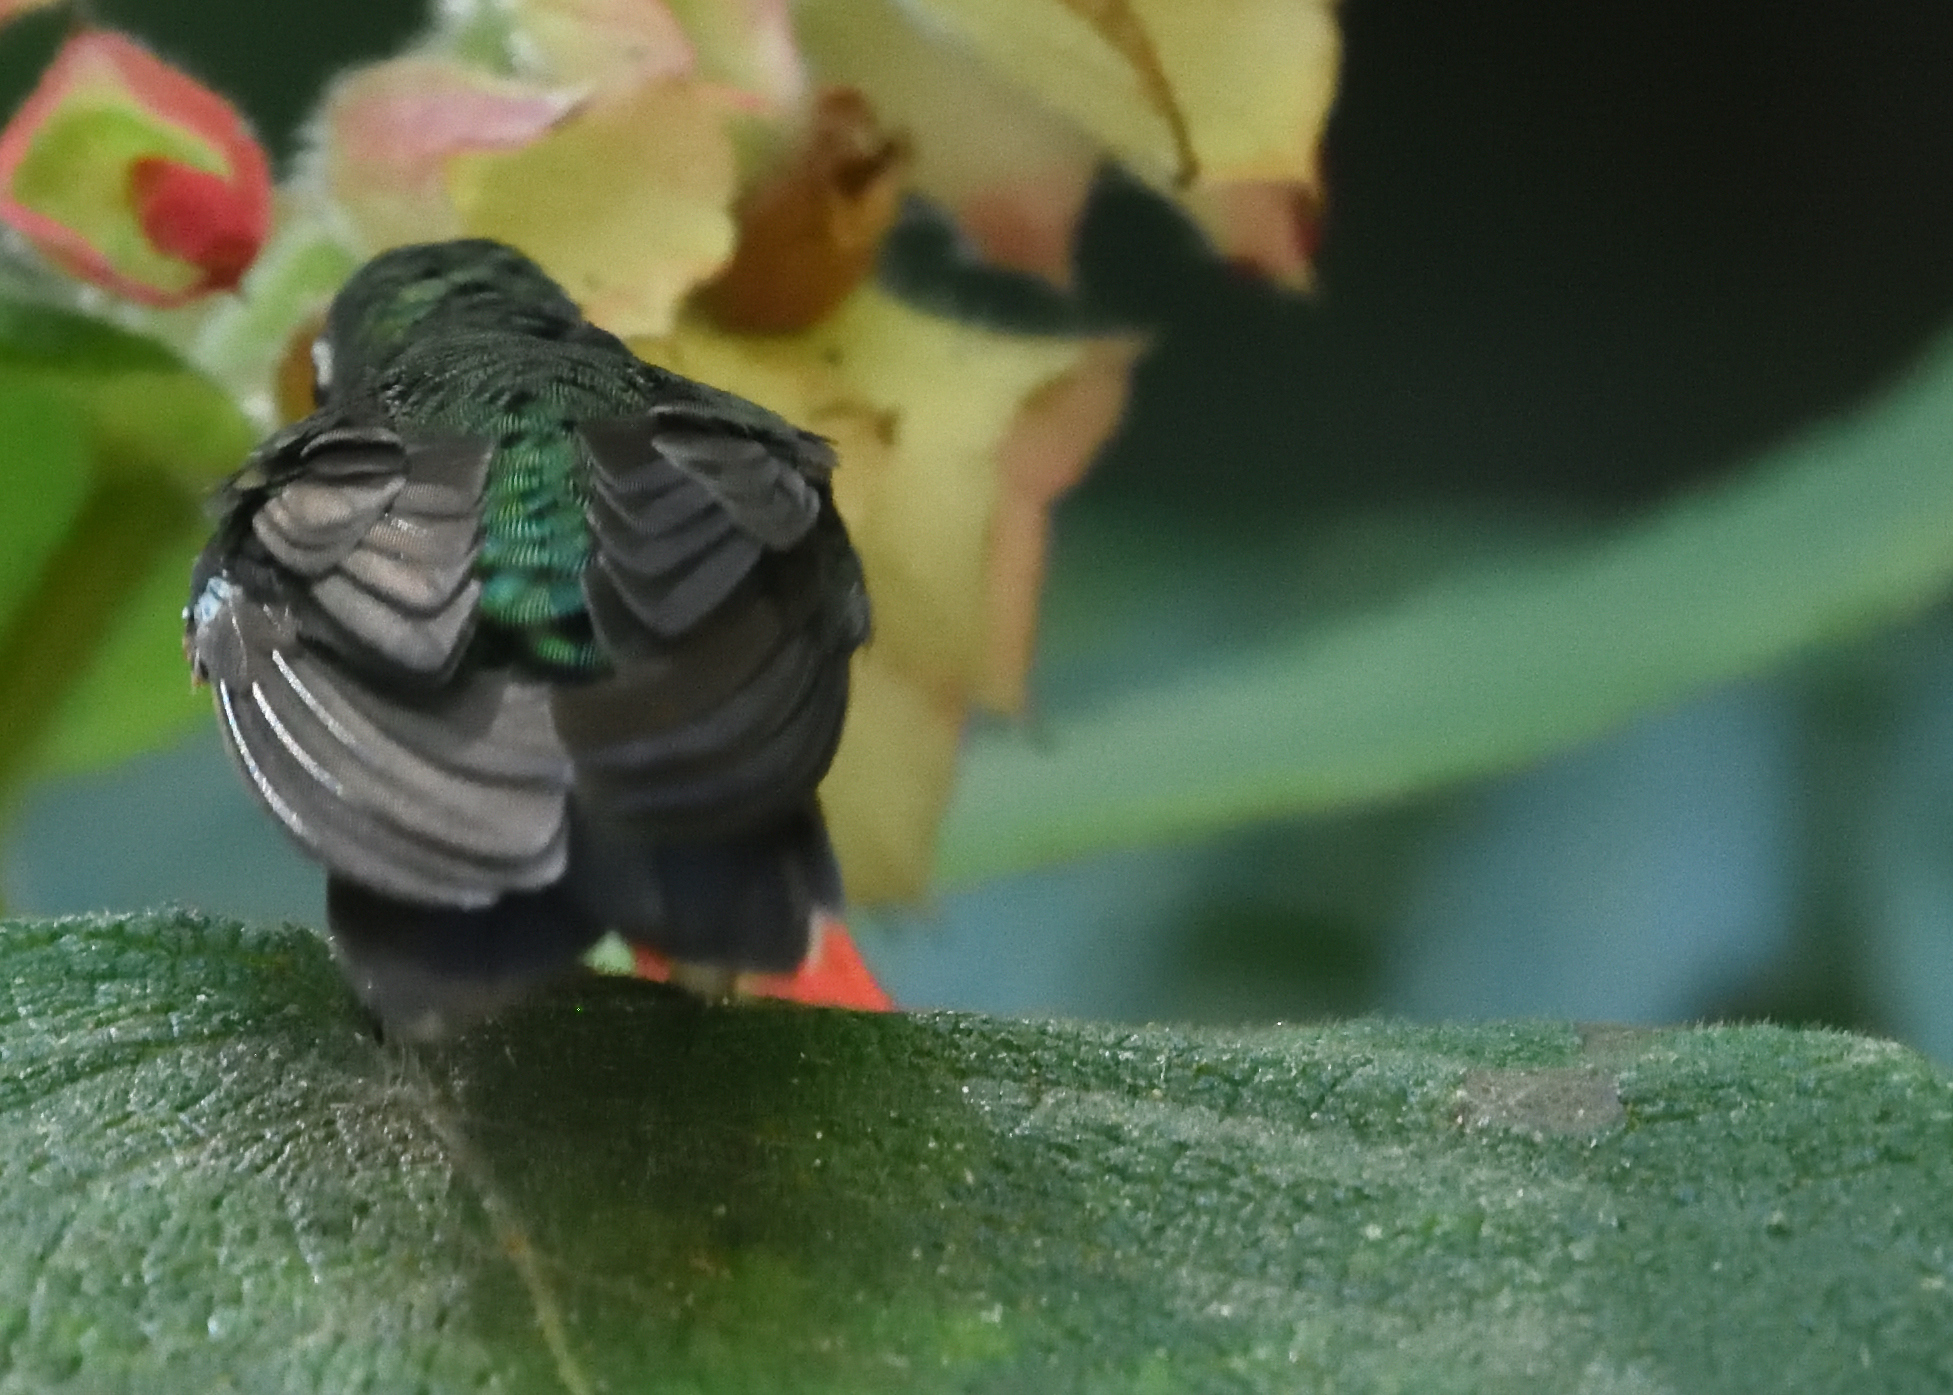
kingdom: Animalia
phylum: Chordata
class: Aves
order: Apodiformes
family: Trochilidae
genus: Metallura
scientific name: Metallura tyrianthina
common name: Tyrian metaltail
